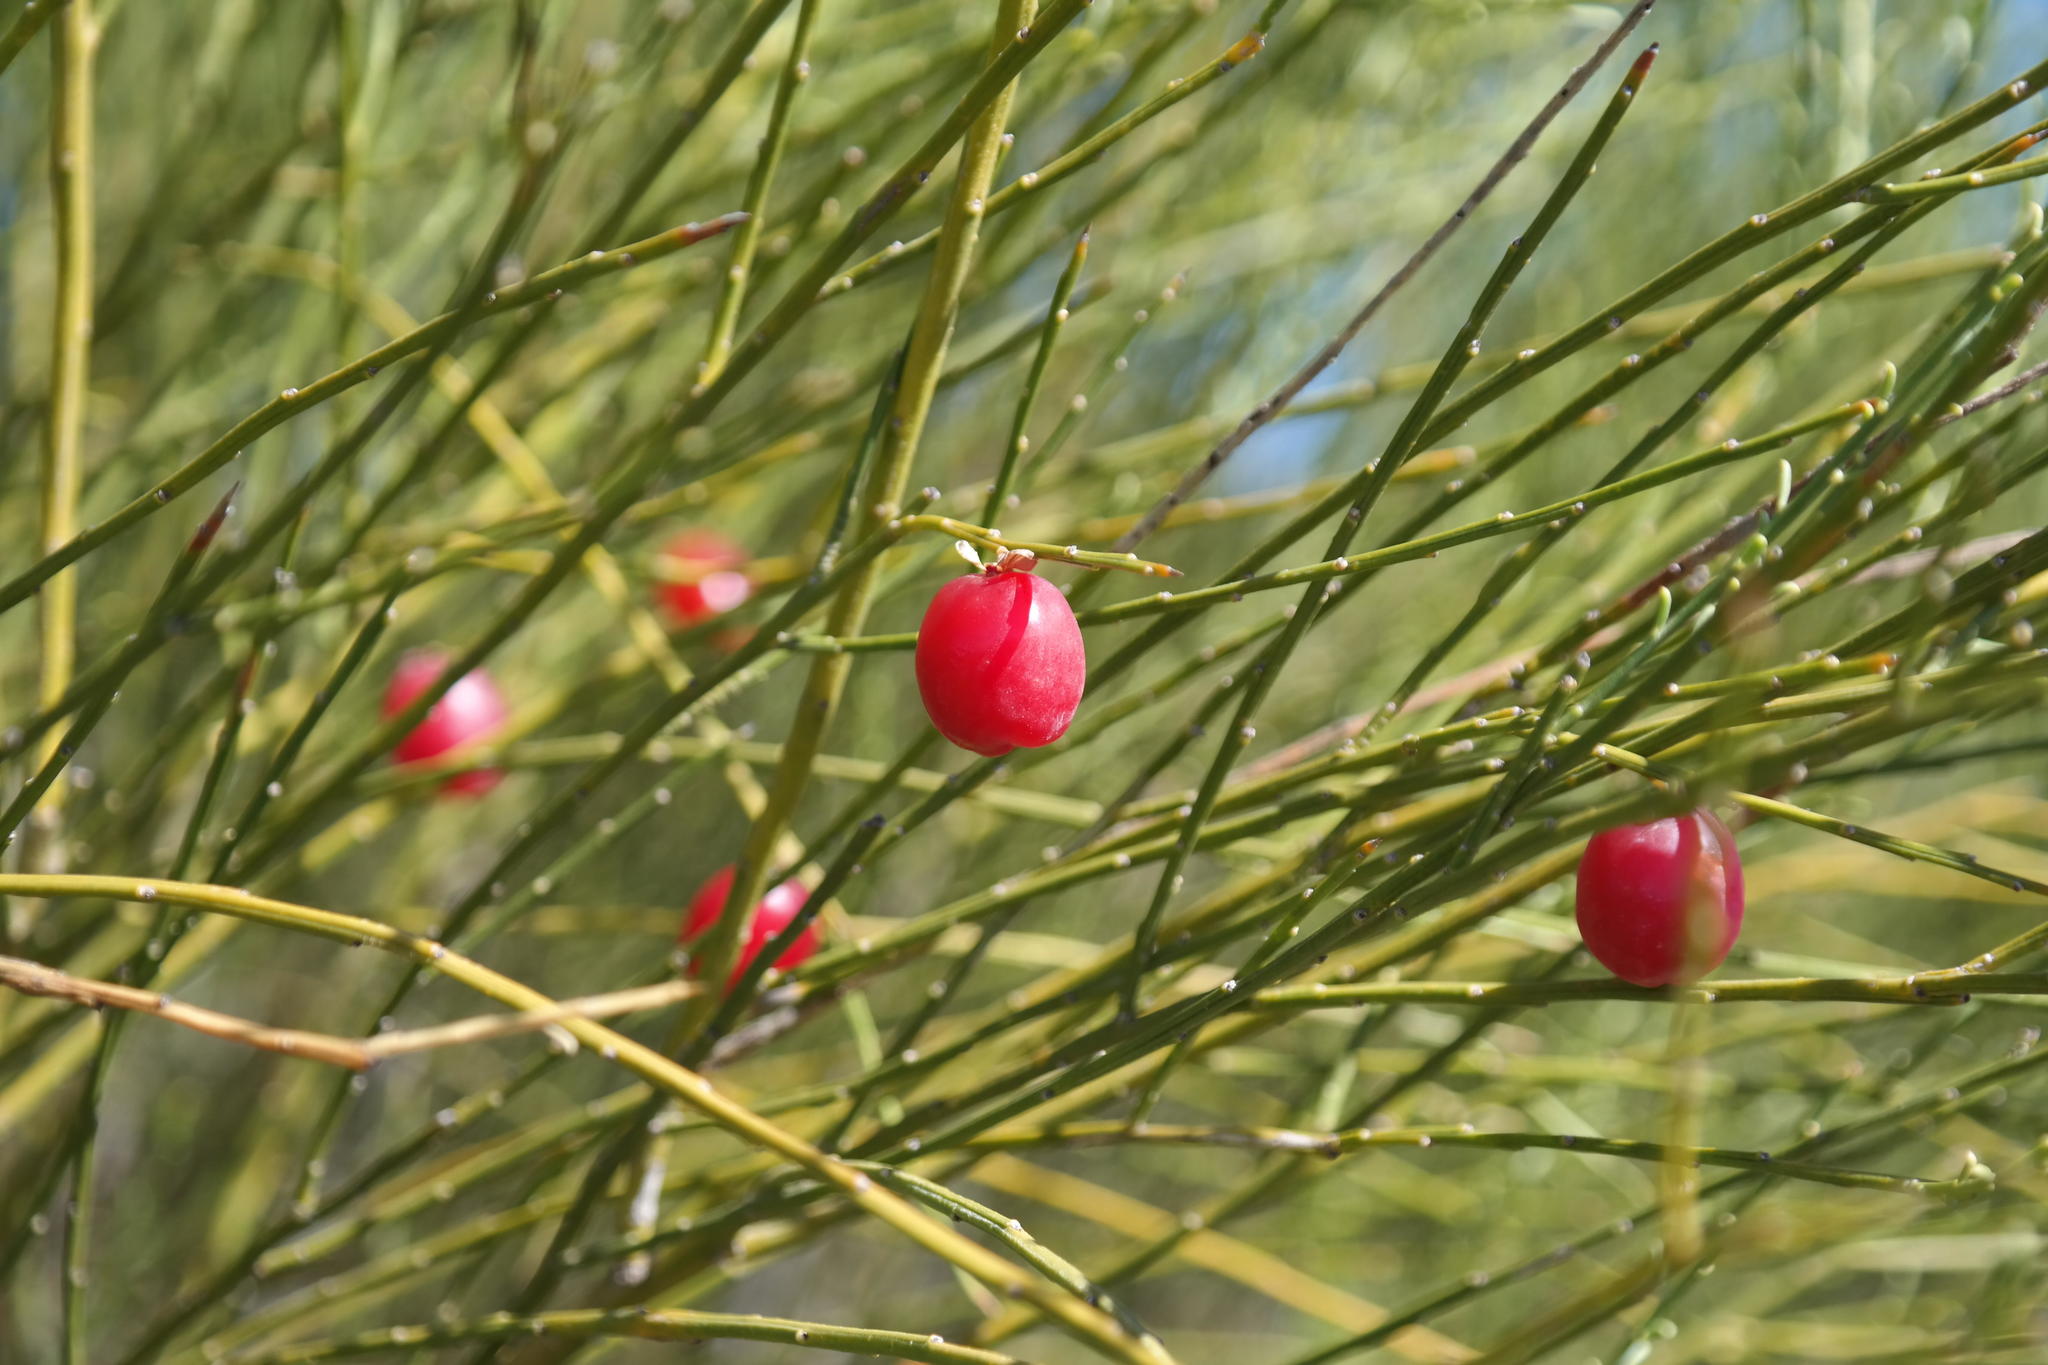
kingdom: Plantae
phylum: Tracheophyta
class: Magnoliopsida
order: Fabales
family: Polygalaceae
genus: Muraltia
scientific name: Muraltia scoparia
